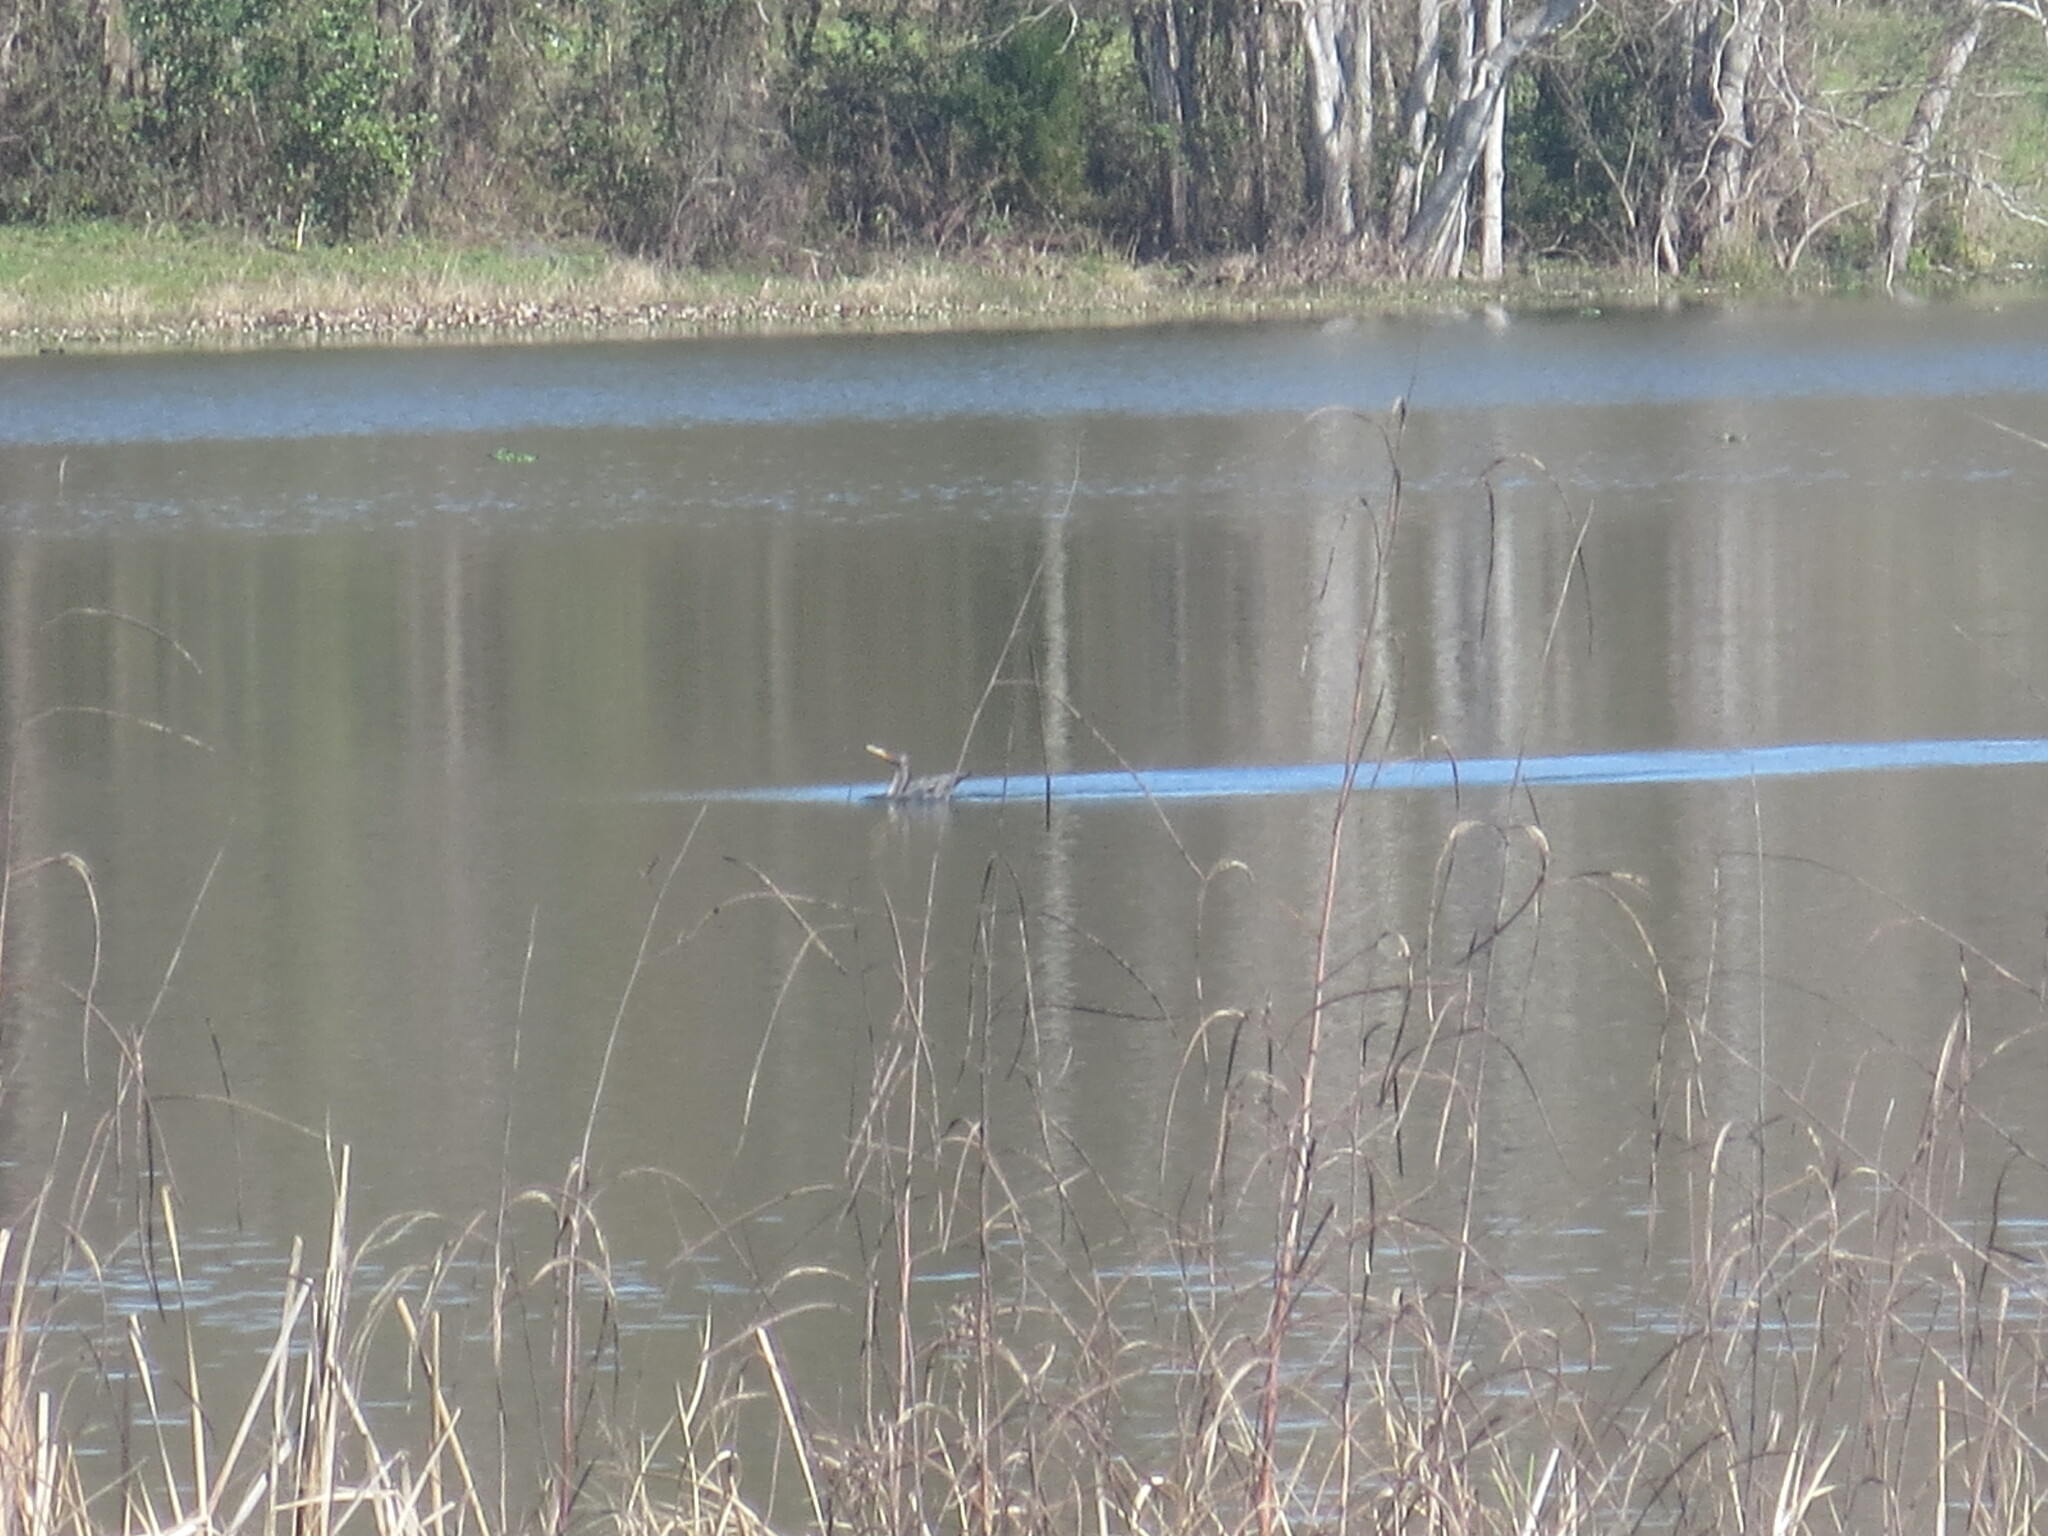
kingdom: Animalia
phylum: Chordata
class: Aves
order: Suliformes
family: Phalacrocoracidae
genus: Phalacrocorax
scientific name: Phalacrocorax auritus
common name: Double-crested cormorant
